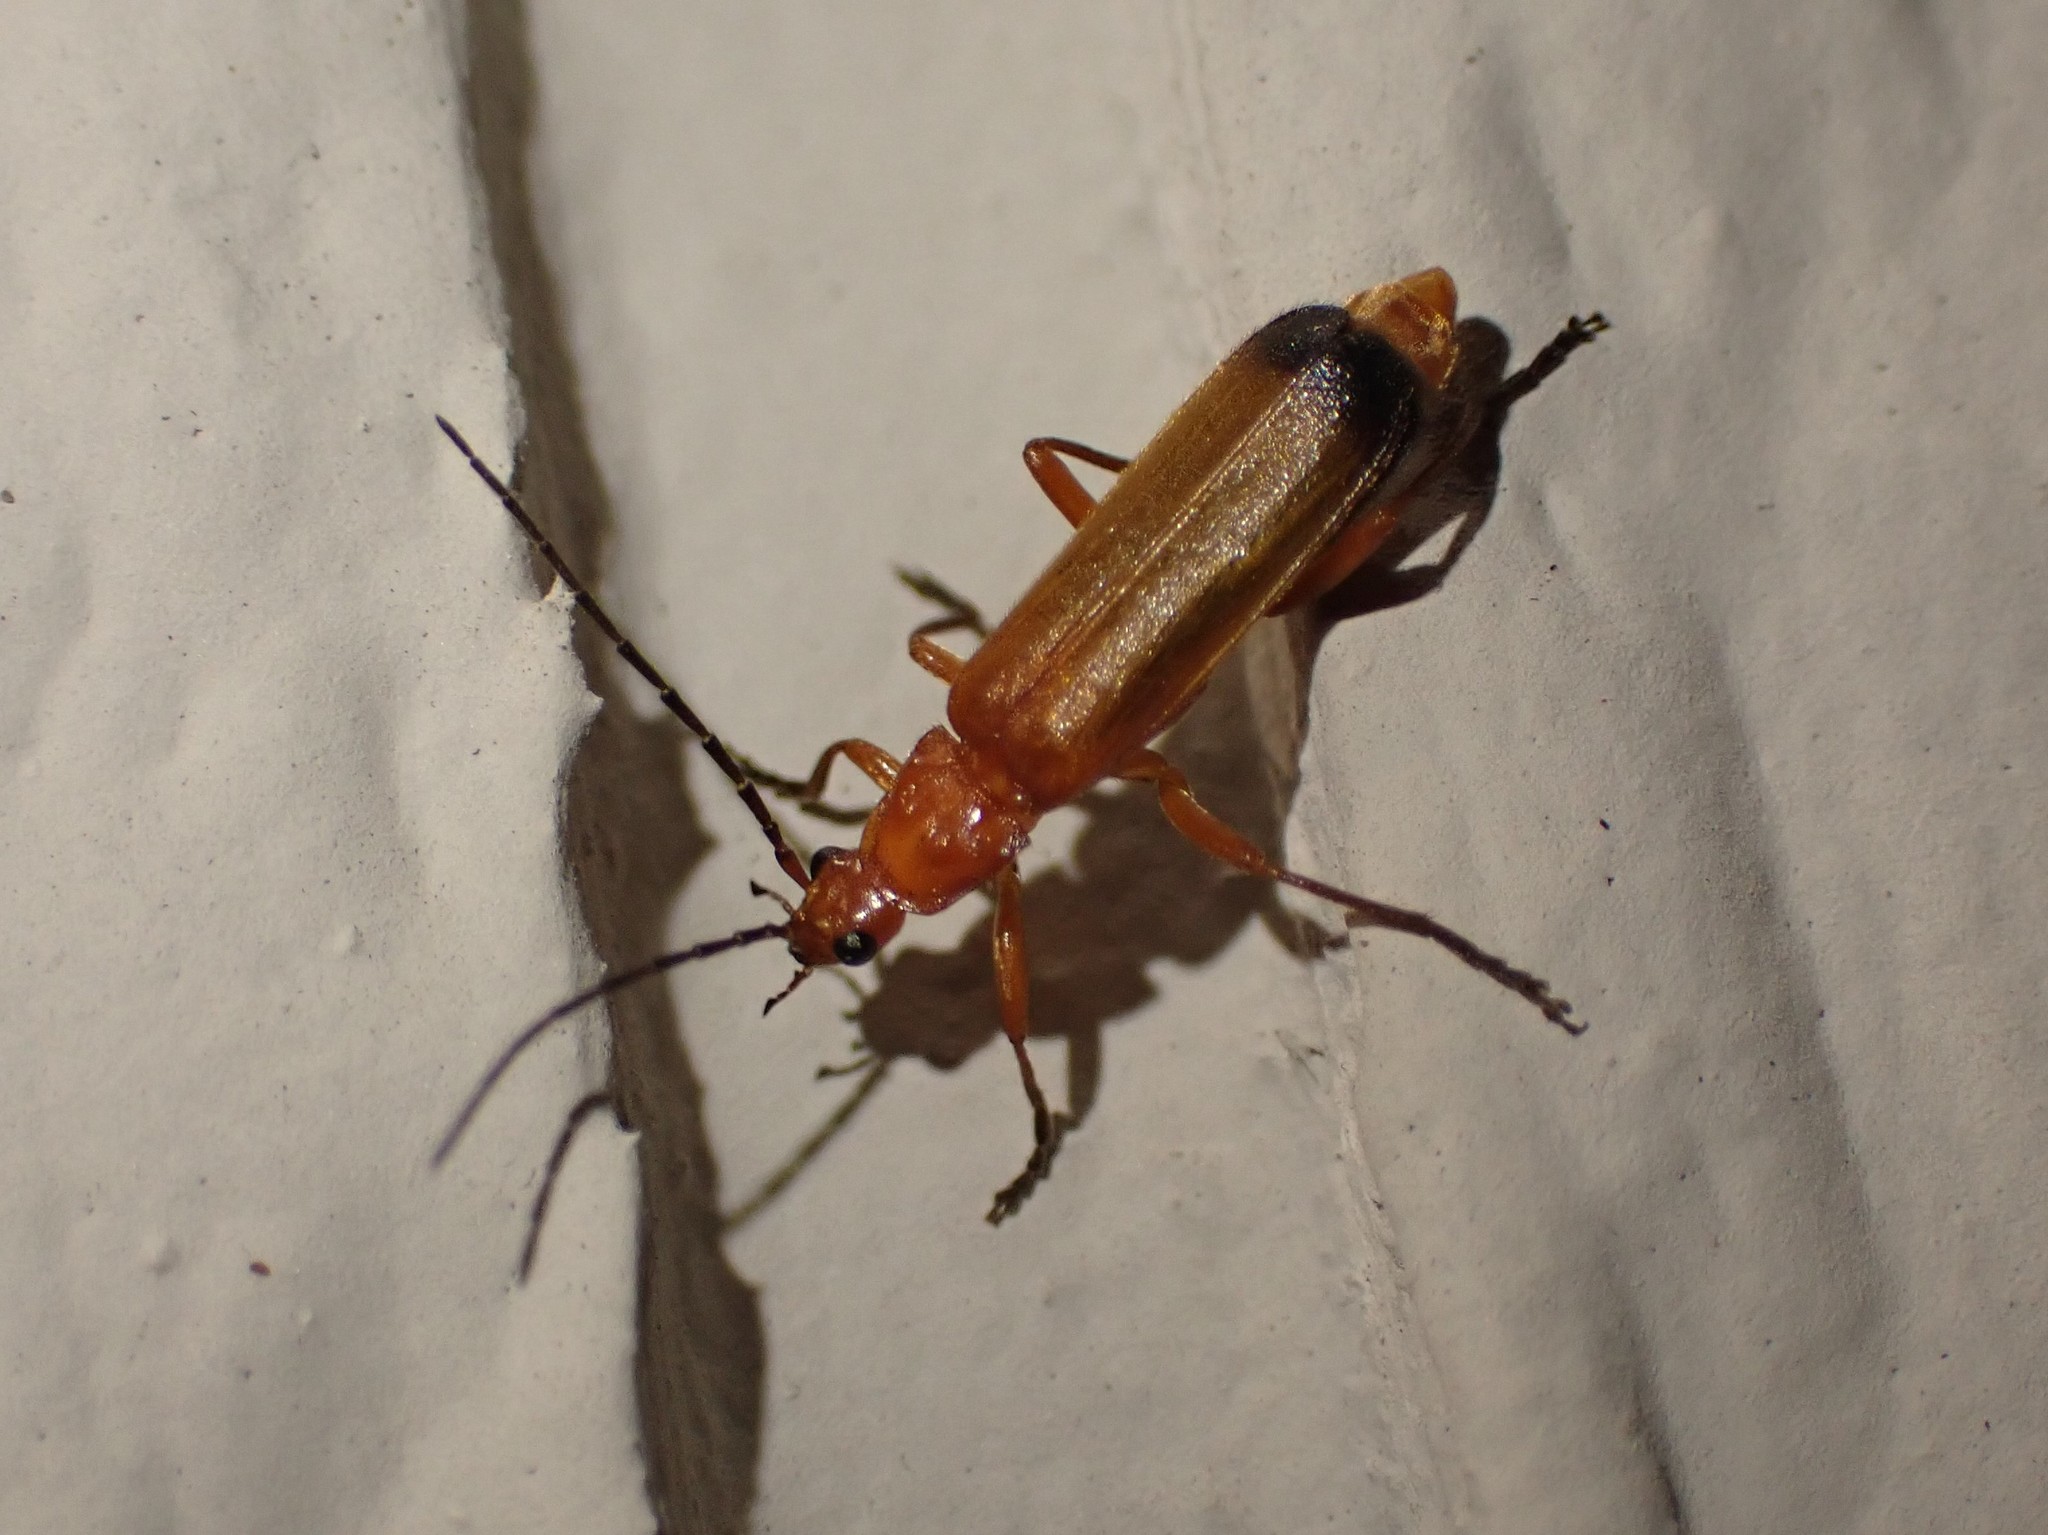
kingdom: Animalia
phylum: Arthropoda
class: Insecta
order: Coleoptera
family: Cantharidae
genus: Rhagonycha
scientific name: Rhagonycha fulva
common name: Common red soldier beetle
